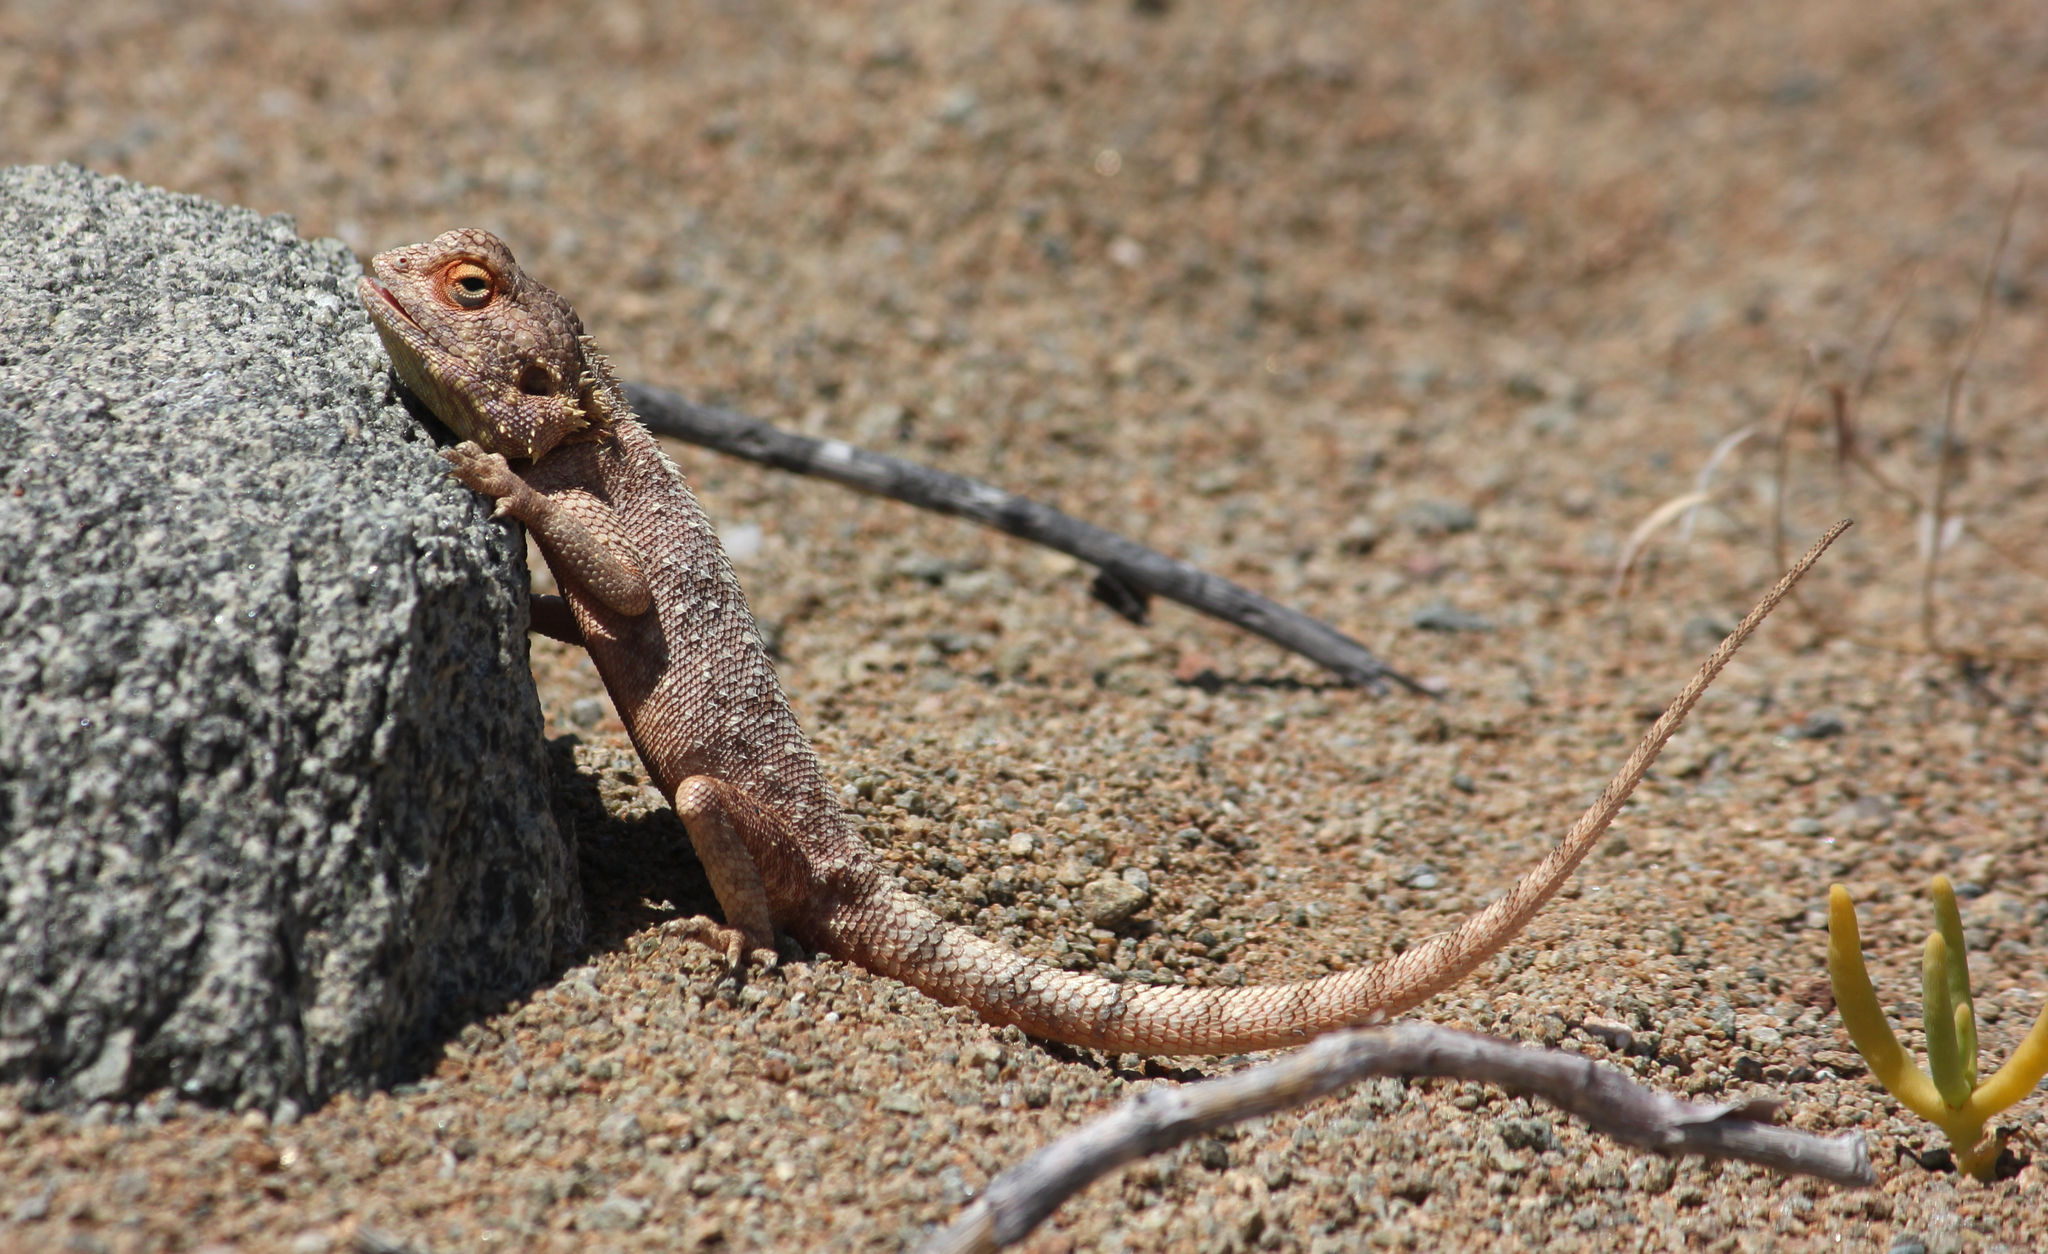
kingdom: Animalia
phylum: Chordata
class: Squamata
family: Agamidae
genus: Agama
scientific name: Agama anchietae
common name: Anchieta's agama
